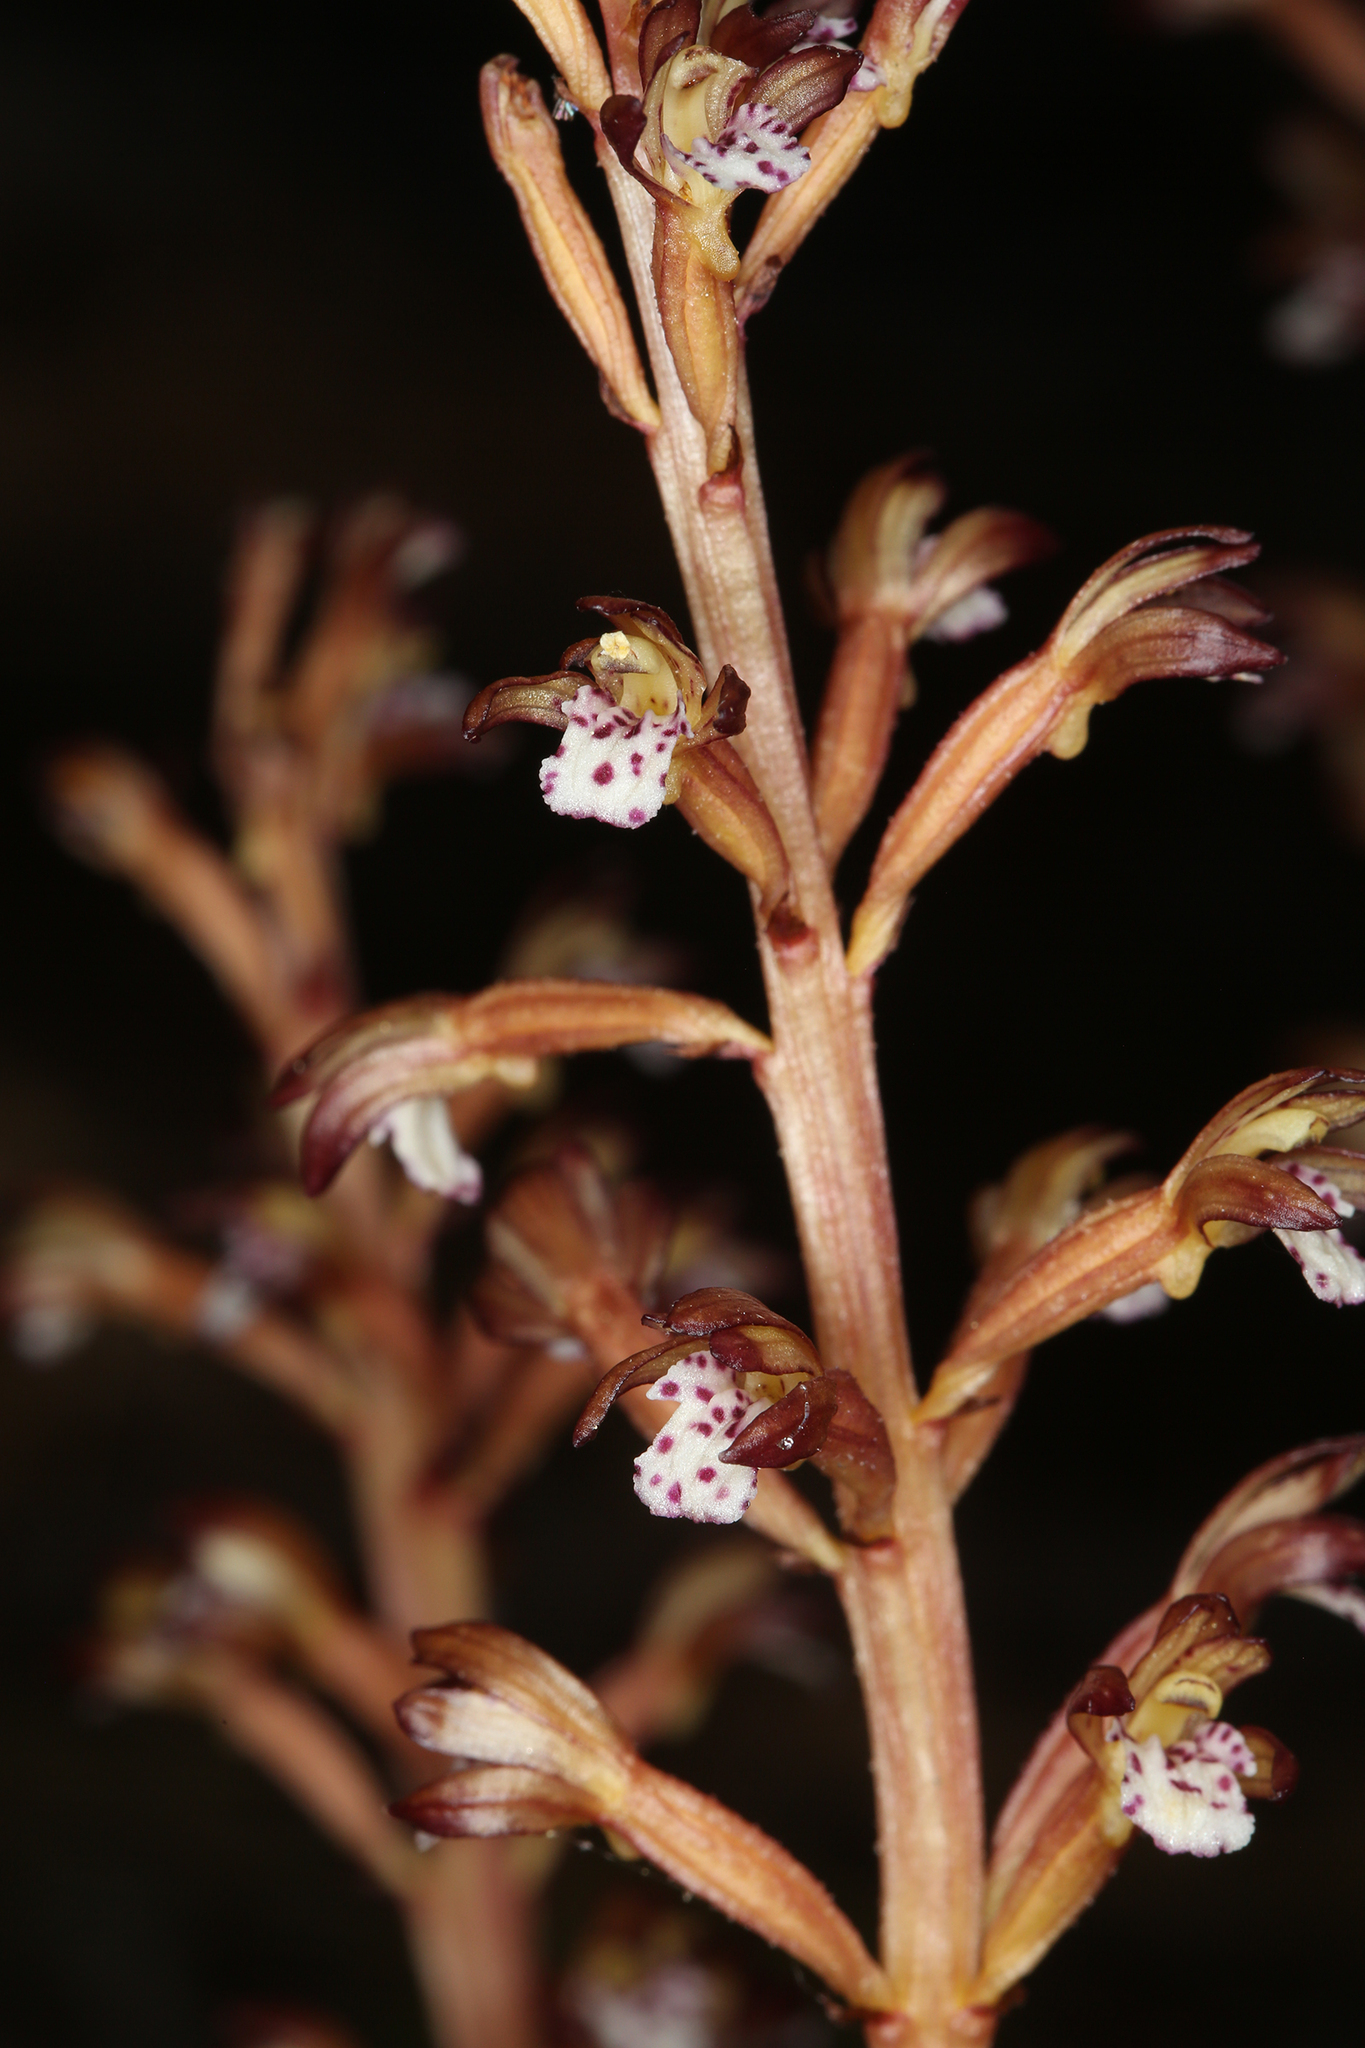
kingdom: Plantae
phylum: Tracheophyta
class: Liliopsida
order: Asparagales
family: Orchidaceae
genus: Corallorhiza
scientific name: Corallorhiza maculata
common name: Spotted coralroot
